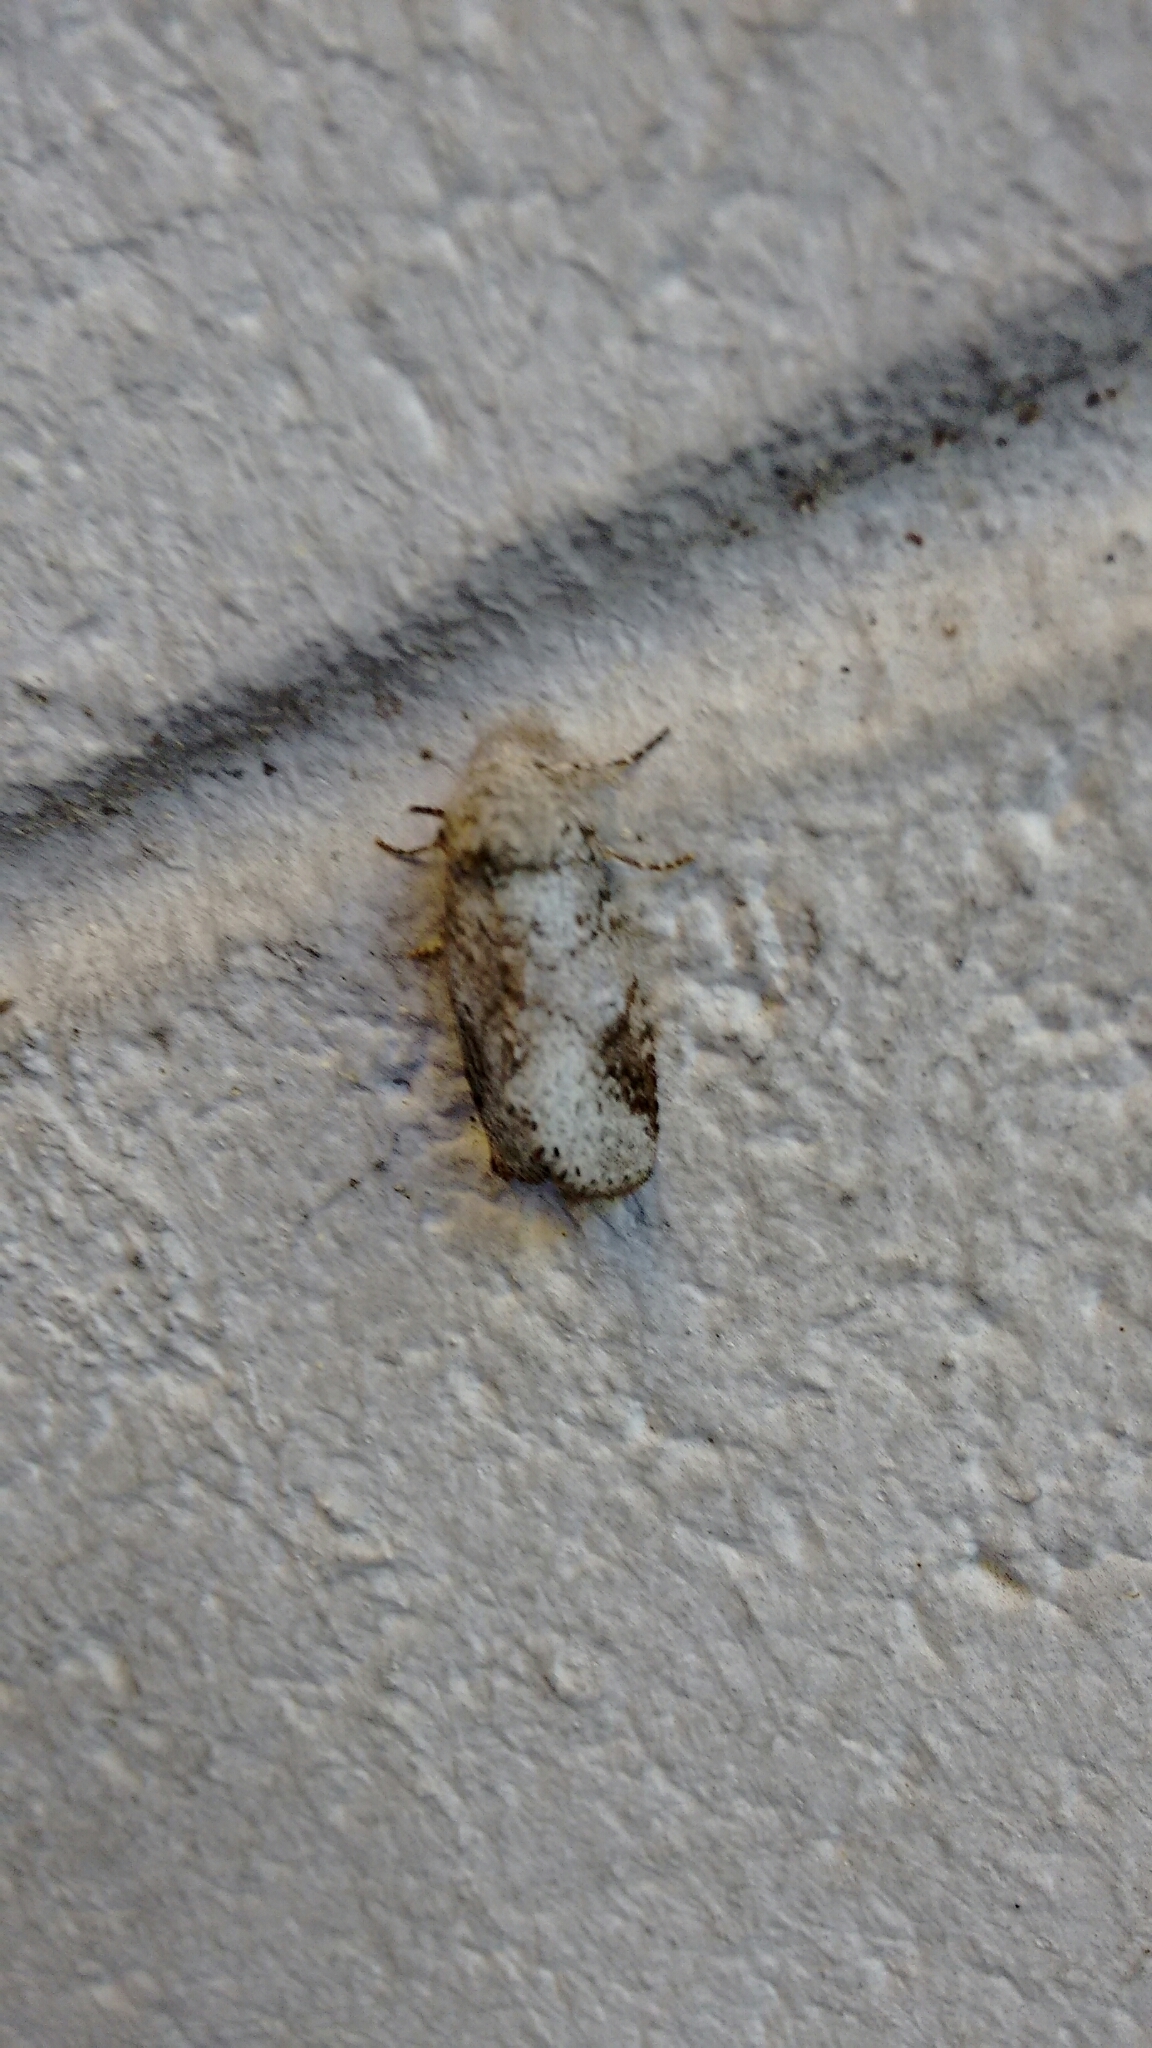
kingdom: Animalia
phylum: Arthropoda
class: Insecta
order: Lepidoptera
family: Notodontidae
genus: Lochmaeus
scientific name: Lochmaeus bilineata
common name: Double-lined prominent
